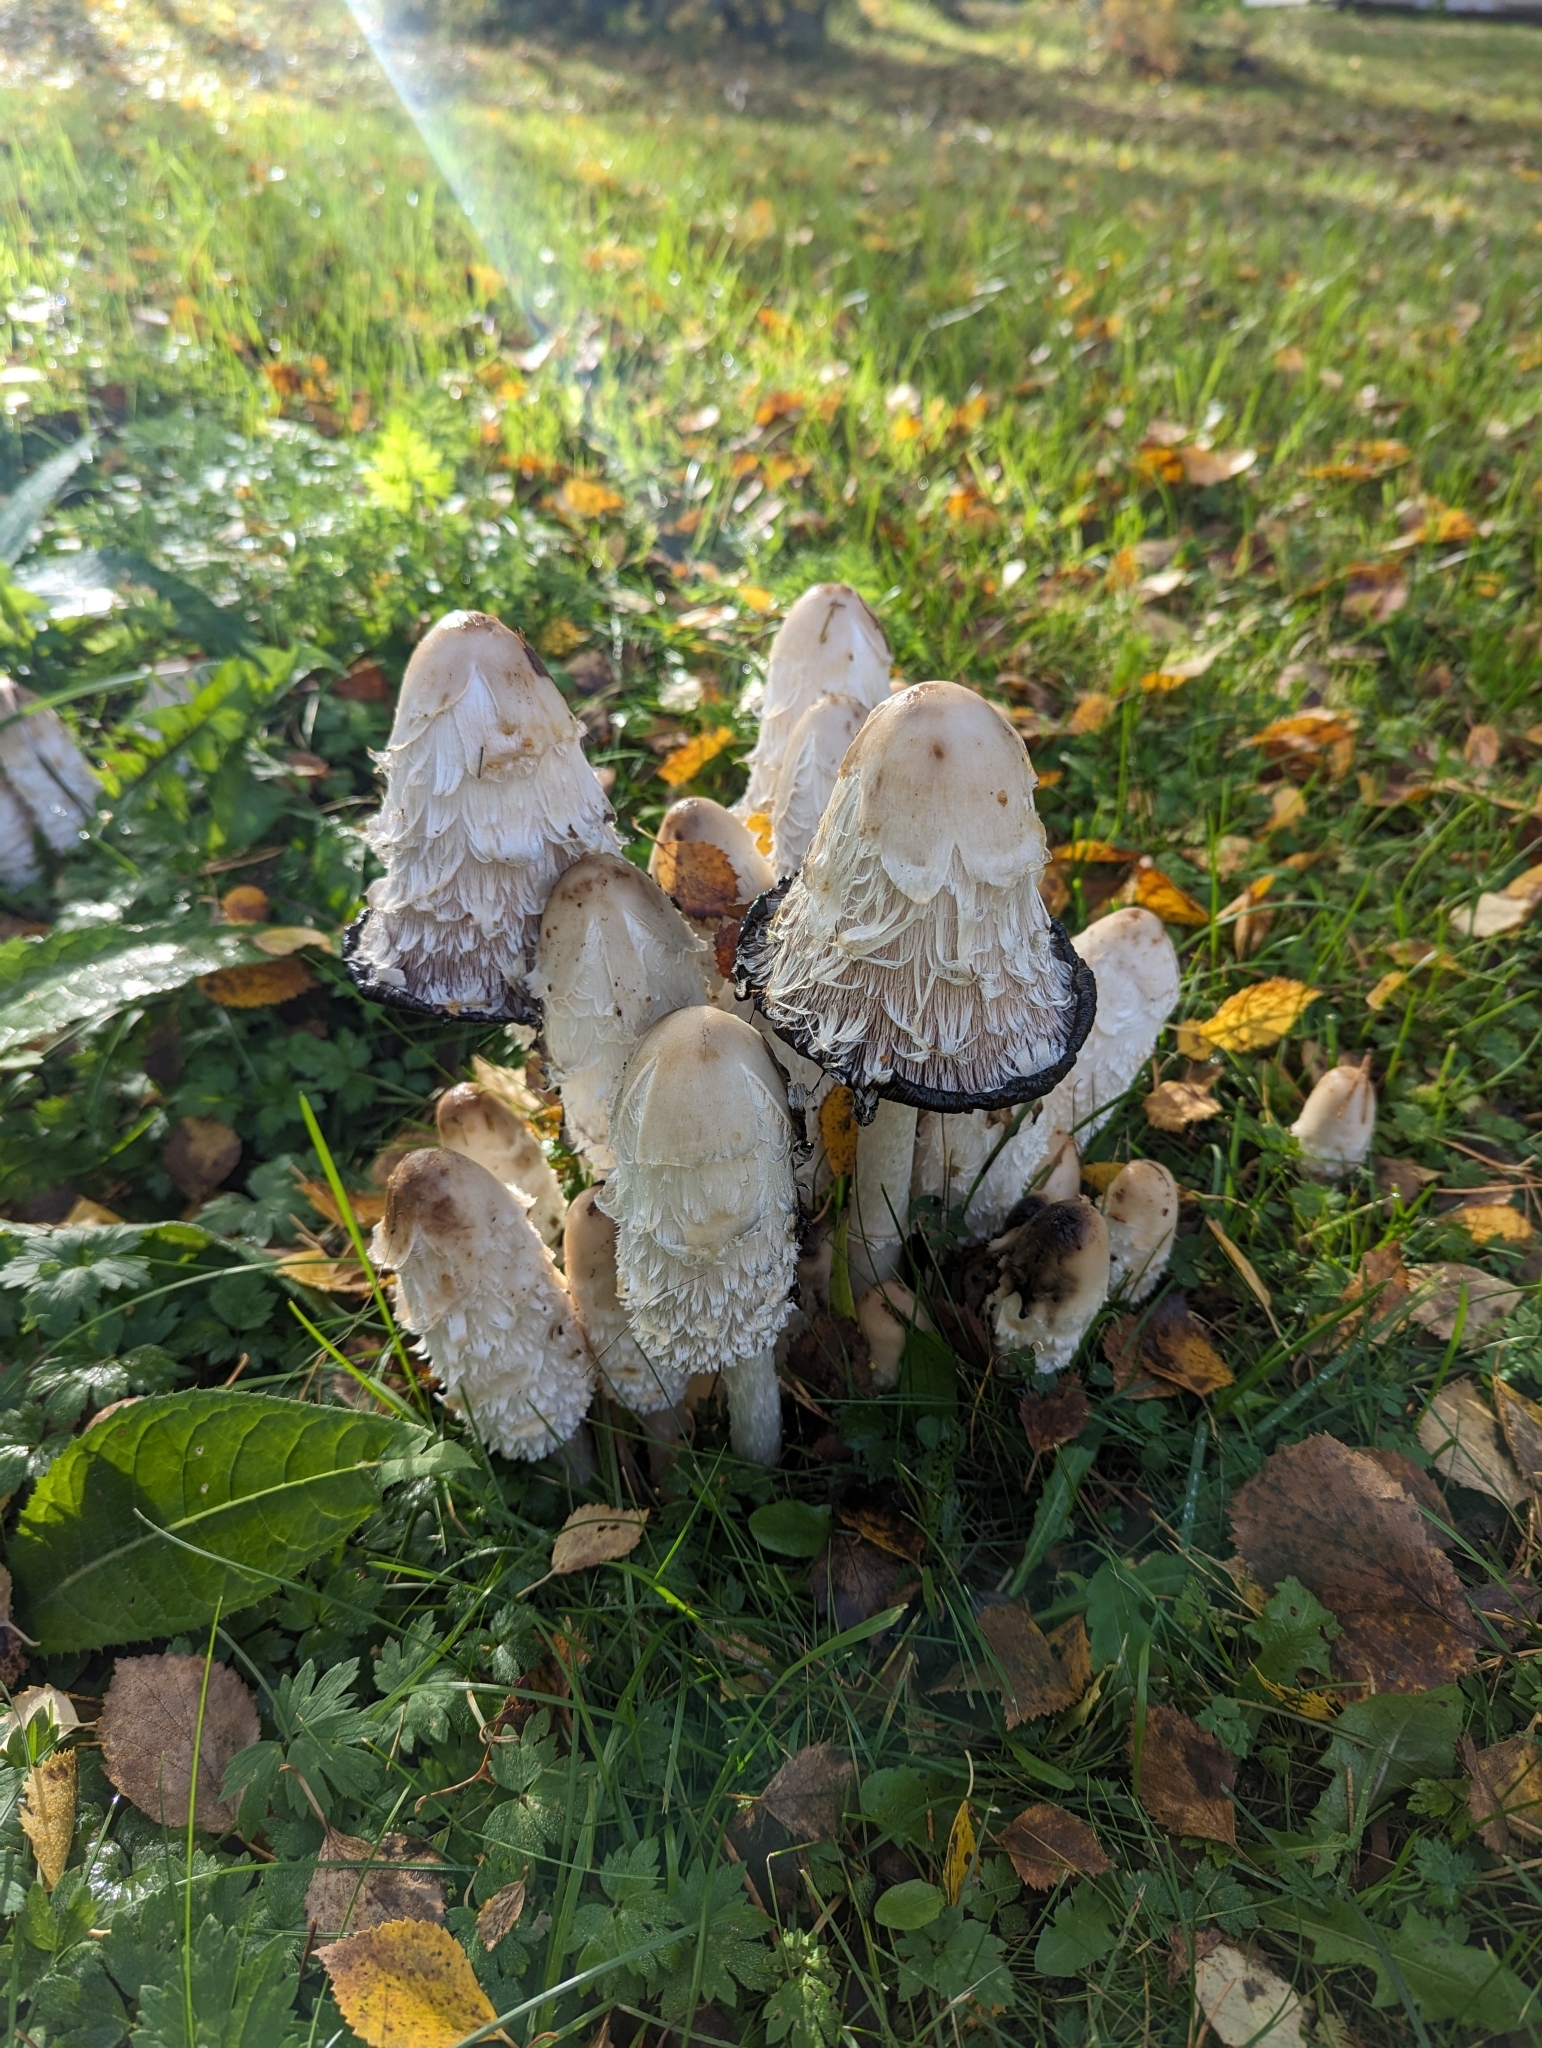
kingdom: Fungi
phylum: Basidiomycota
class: Agaricomycetes
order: Agaricales
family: Agaricaceae
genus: Coprinus
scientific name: Coprinus comatus
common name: Lawyer's wig
